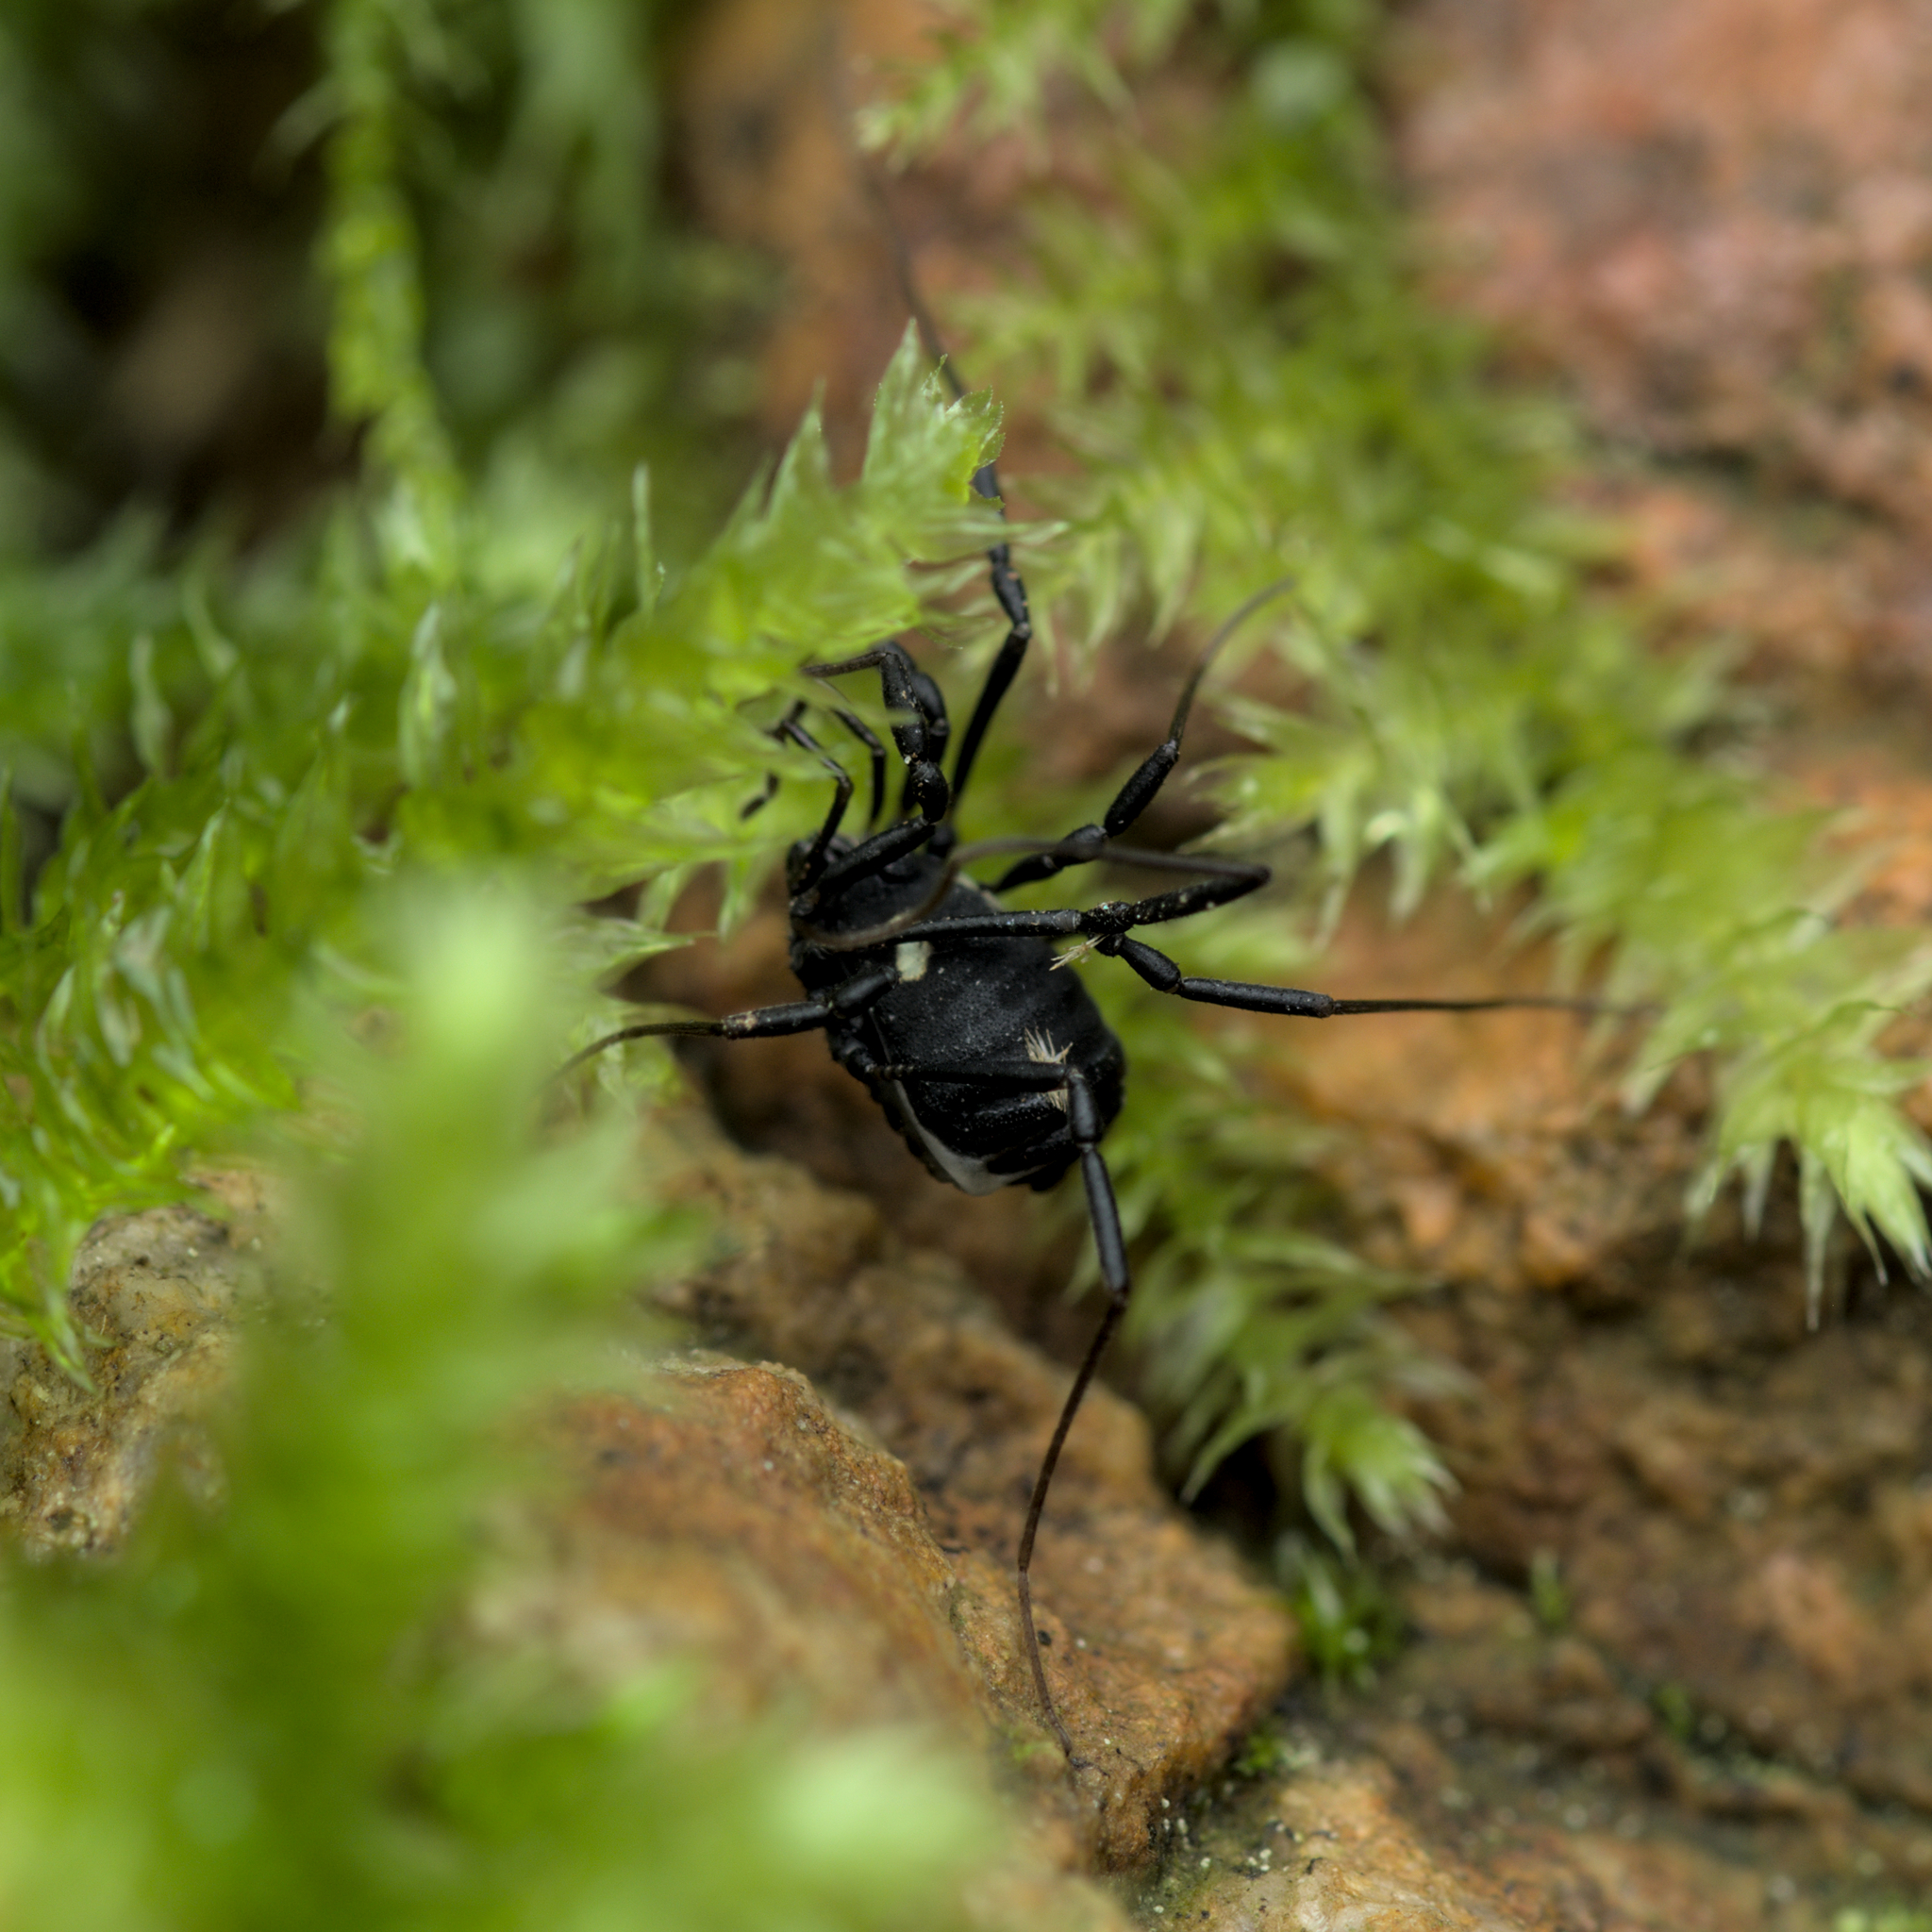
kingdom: Animalia
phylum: Arthropoda
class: Arachnida
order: Opiliones
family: Nemastomatidae
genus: Nemastoma
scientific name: Nemastoma bimaculatum
